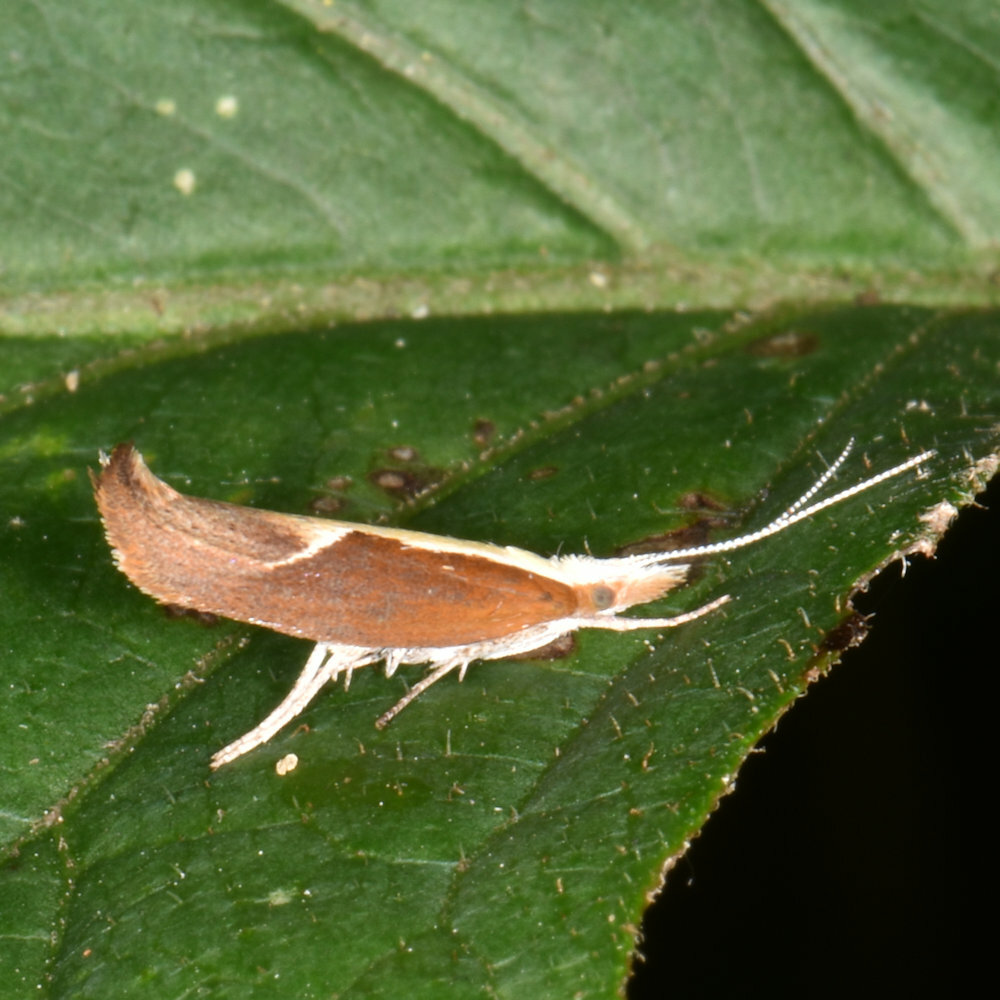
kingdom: Animalia
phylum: Arthropoda
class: Insecta
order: Lepidoptera
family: Ypsolophidae
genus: Ypsolopha
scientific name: Ypsolopha dentella
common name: Honeysuckle moth
